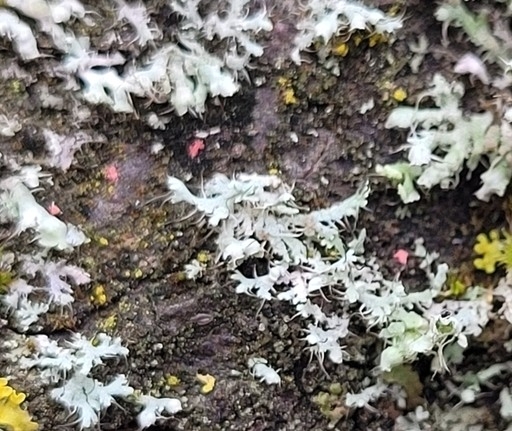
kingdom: Fungi
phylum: Ascomycota
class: Sordariomycetes
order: Hypocreales
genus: Illosporiopsis
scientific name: Illosporiopsis christiansenii
